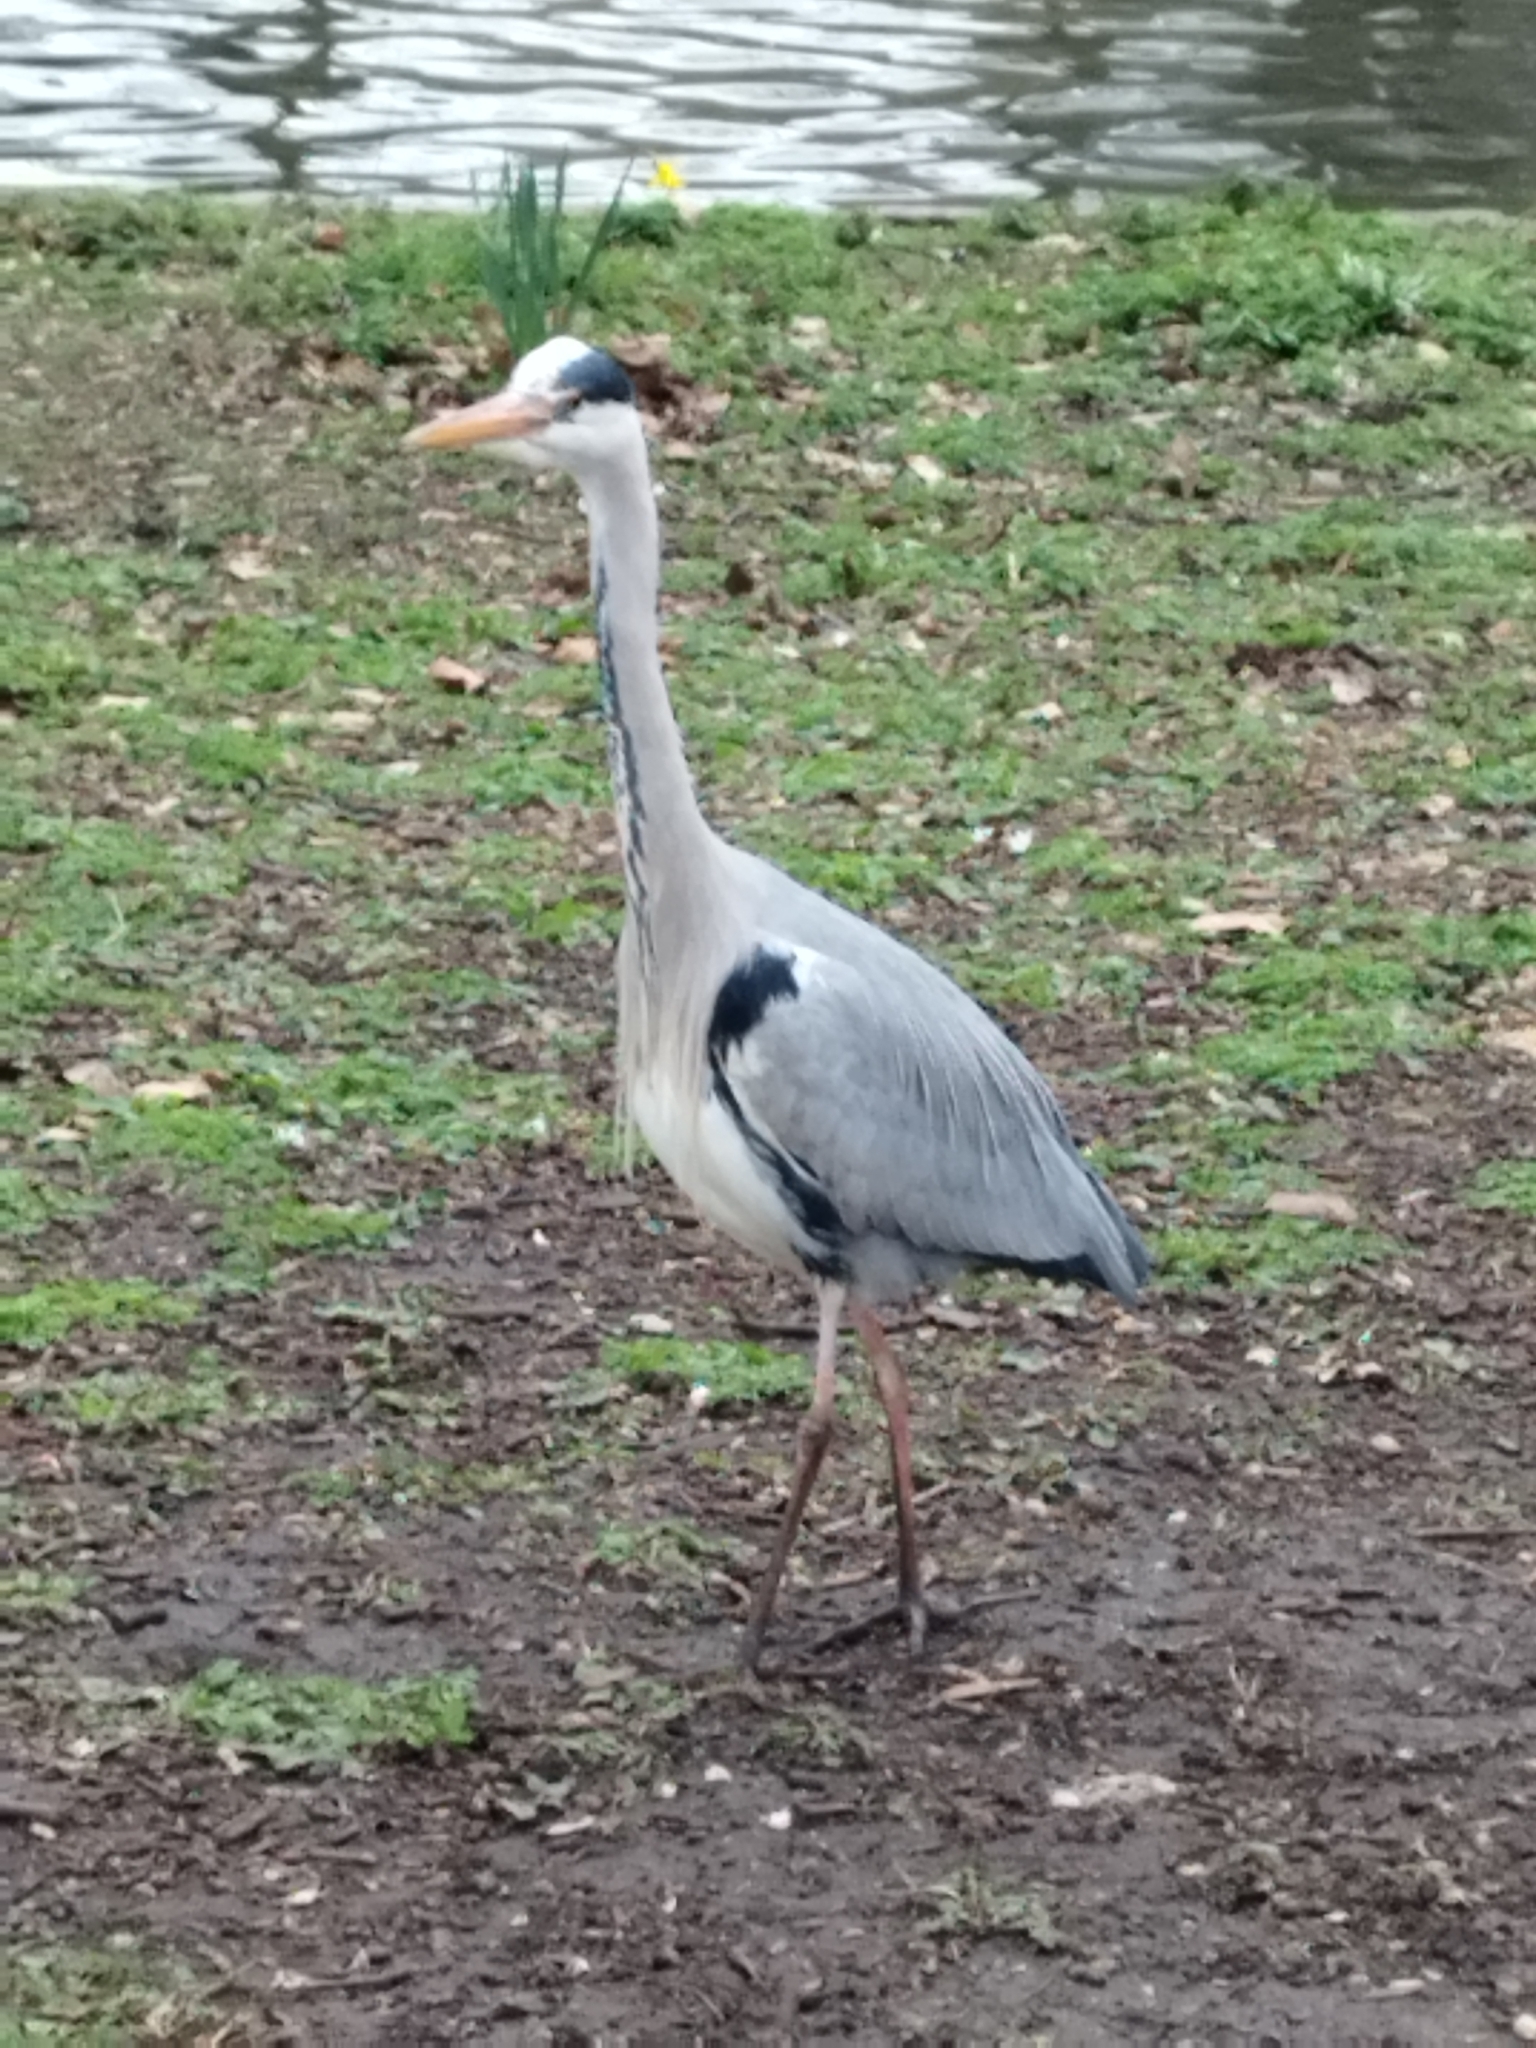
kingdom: Animalia
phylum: Chordata
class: Aves
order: Pelecaniformes
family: Ardeidae
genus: Ardea
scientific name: Ardea cinerea
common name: Grey heron
